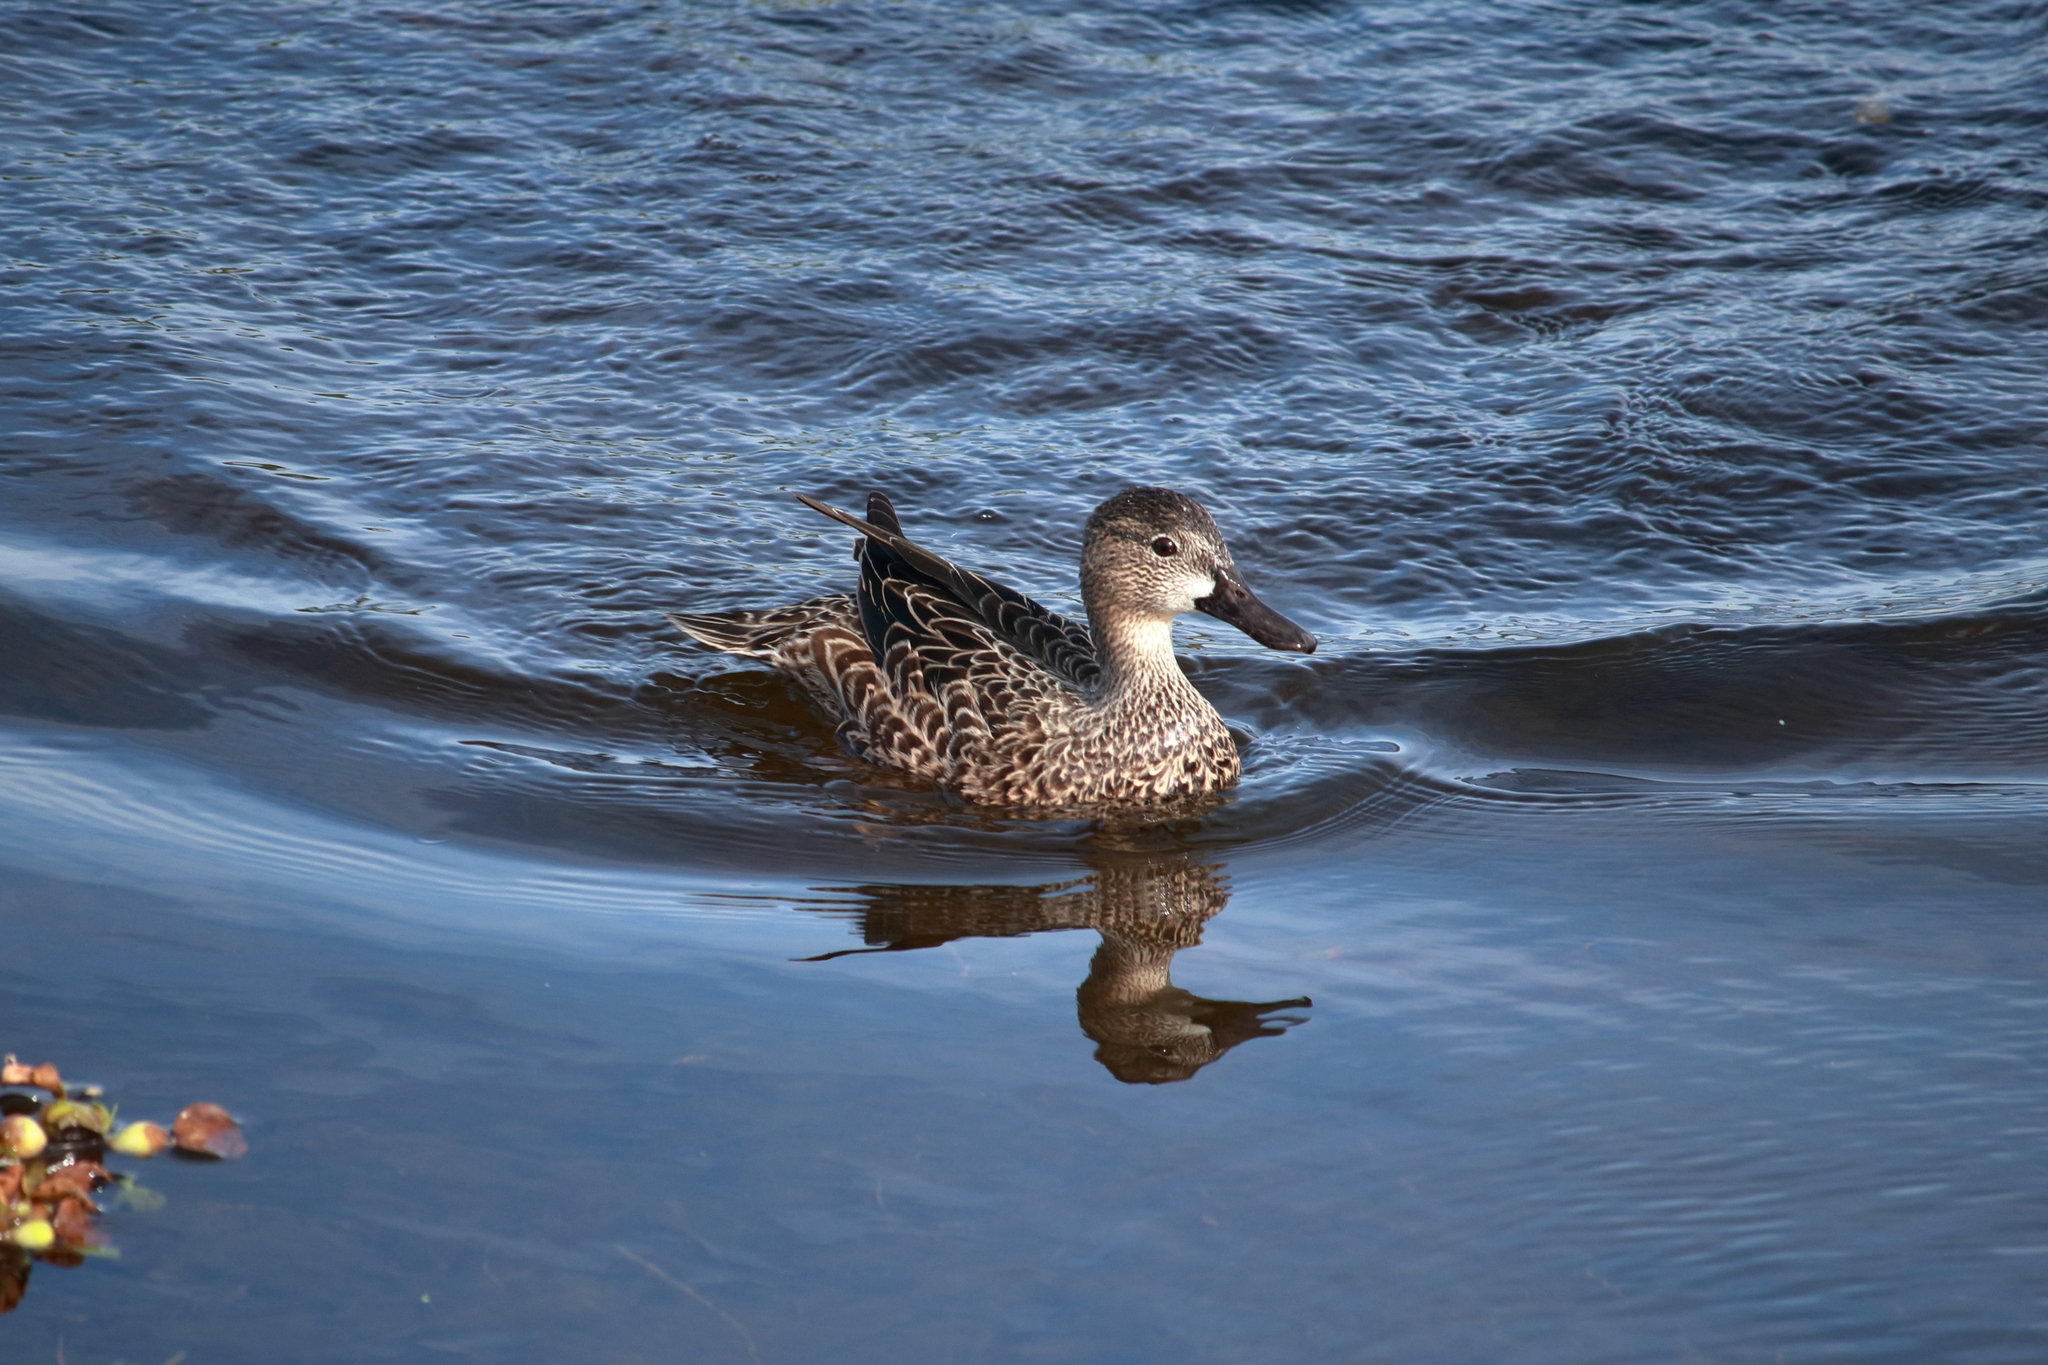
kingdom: Animalia
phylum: Chordata
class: Aves
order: Anseriformes
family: Anatidae
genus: Spatula
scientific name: Spatula discors
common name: Blue-winged teal
